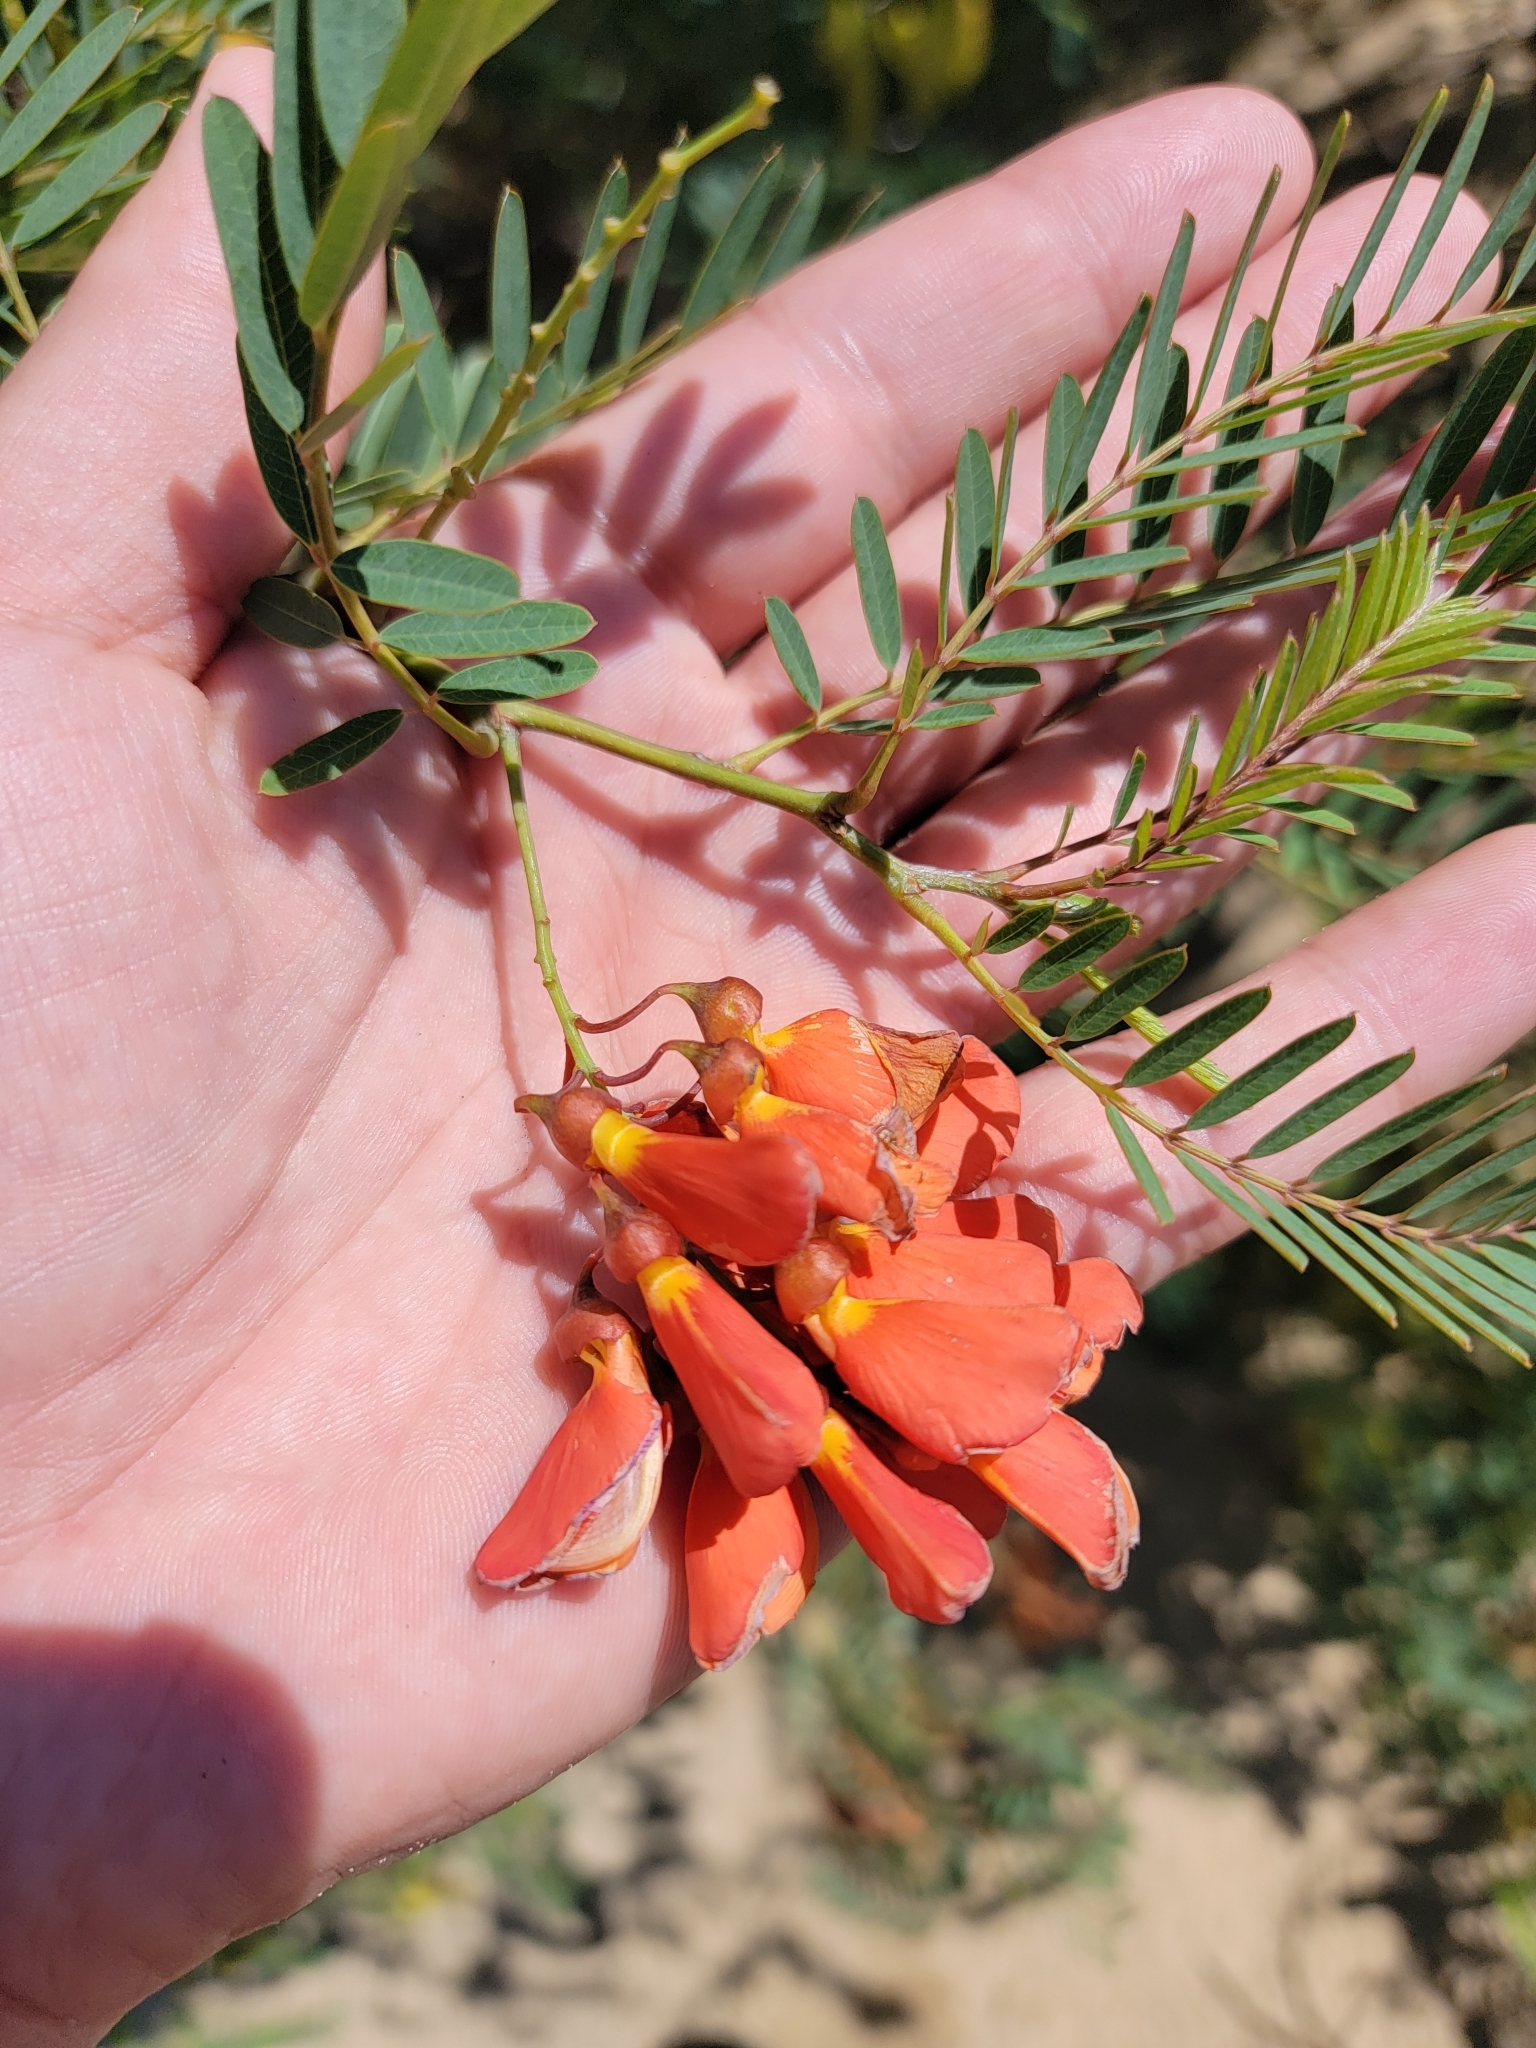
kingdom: Plantae
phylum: Tracheophyta
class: Magnoliopsida
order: Fabales
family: Fabaceae
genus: Sesbania
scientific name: Sesbania punicea
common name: Rattlebox
